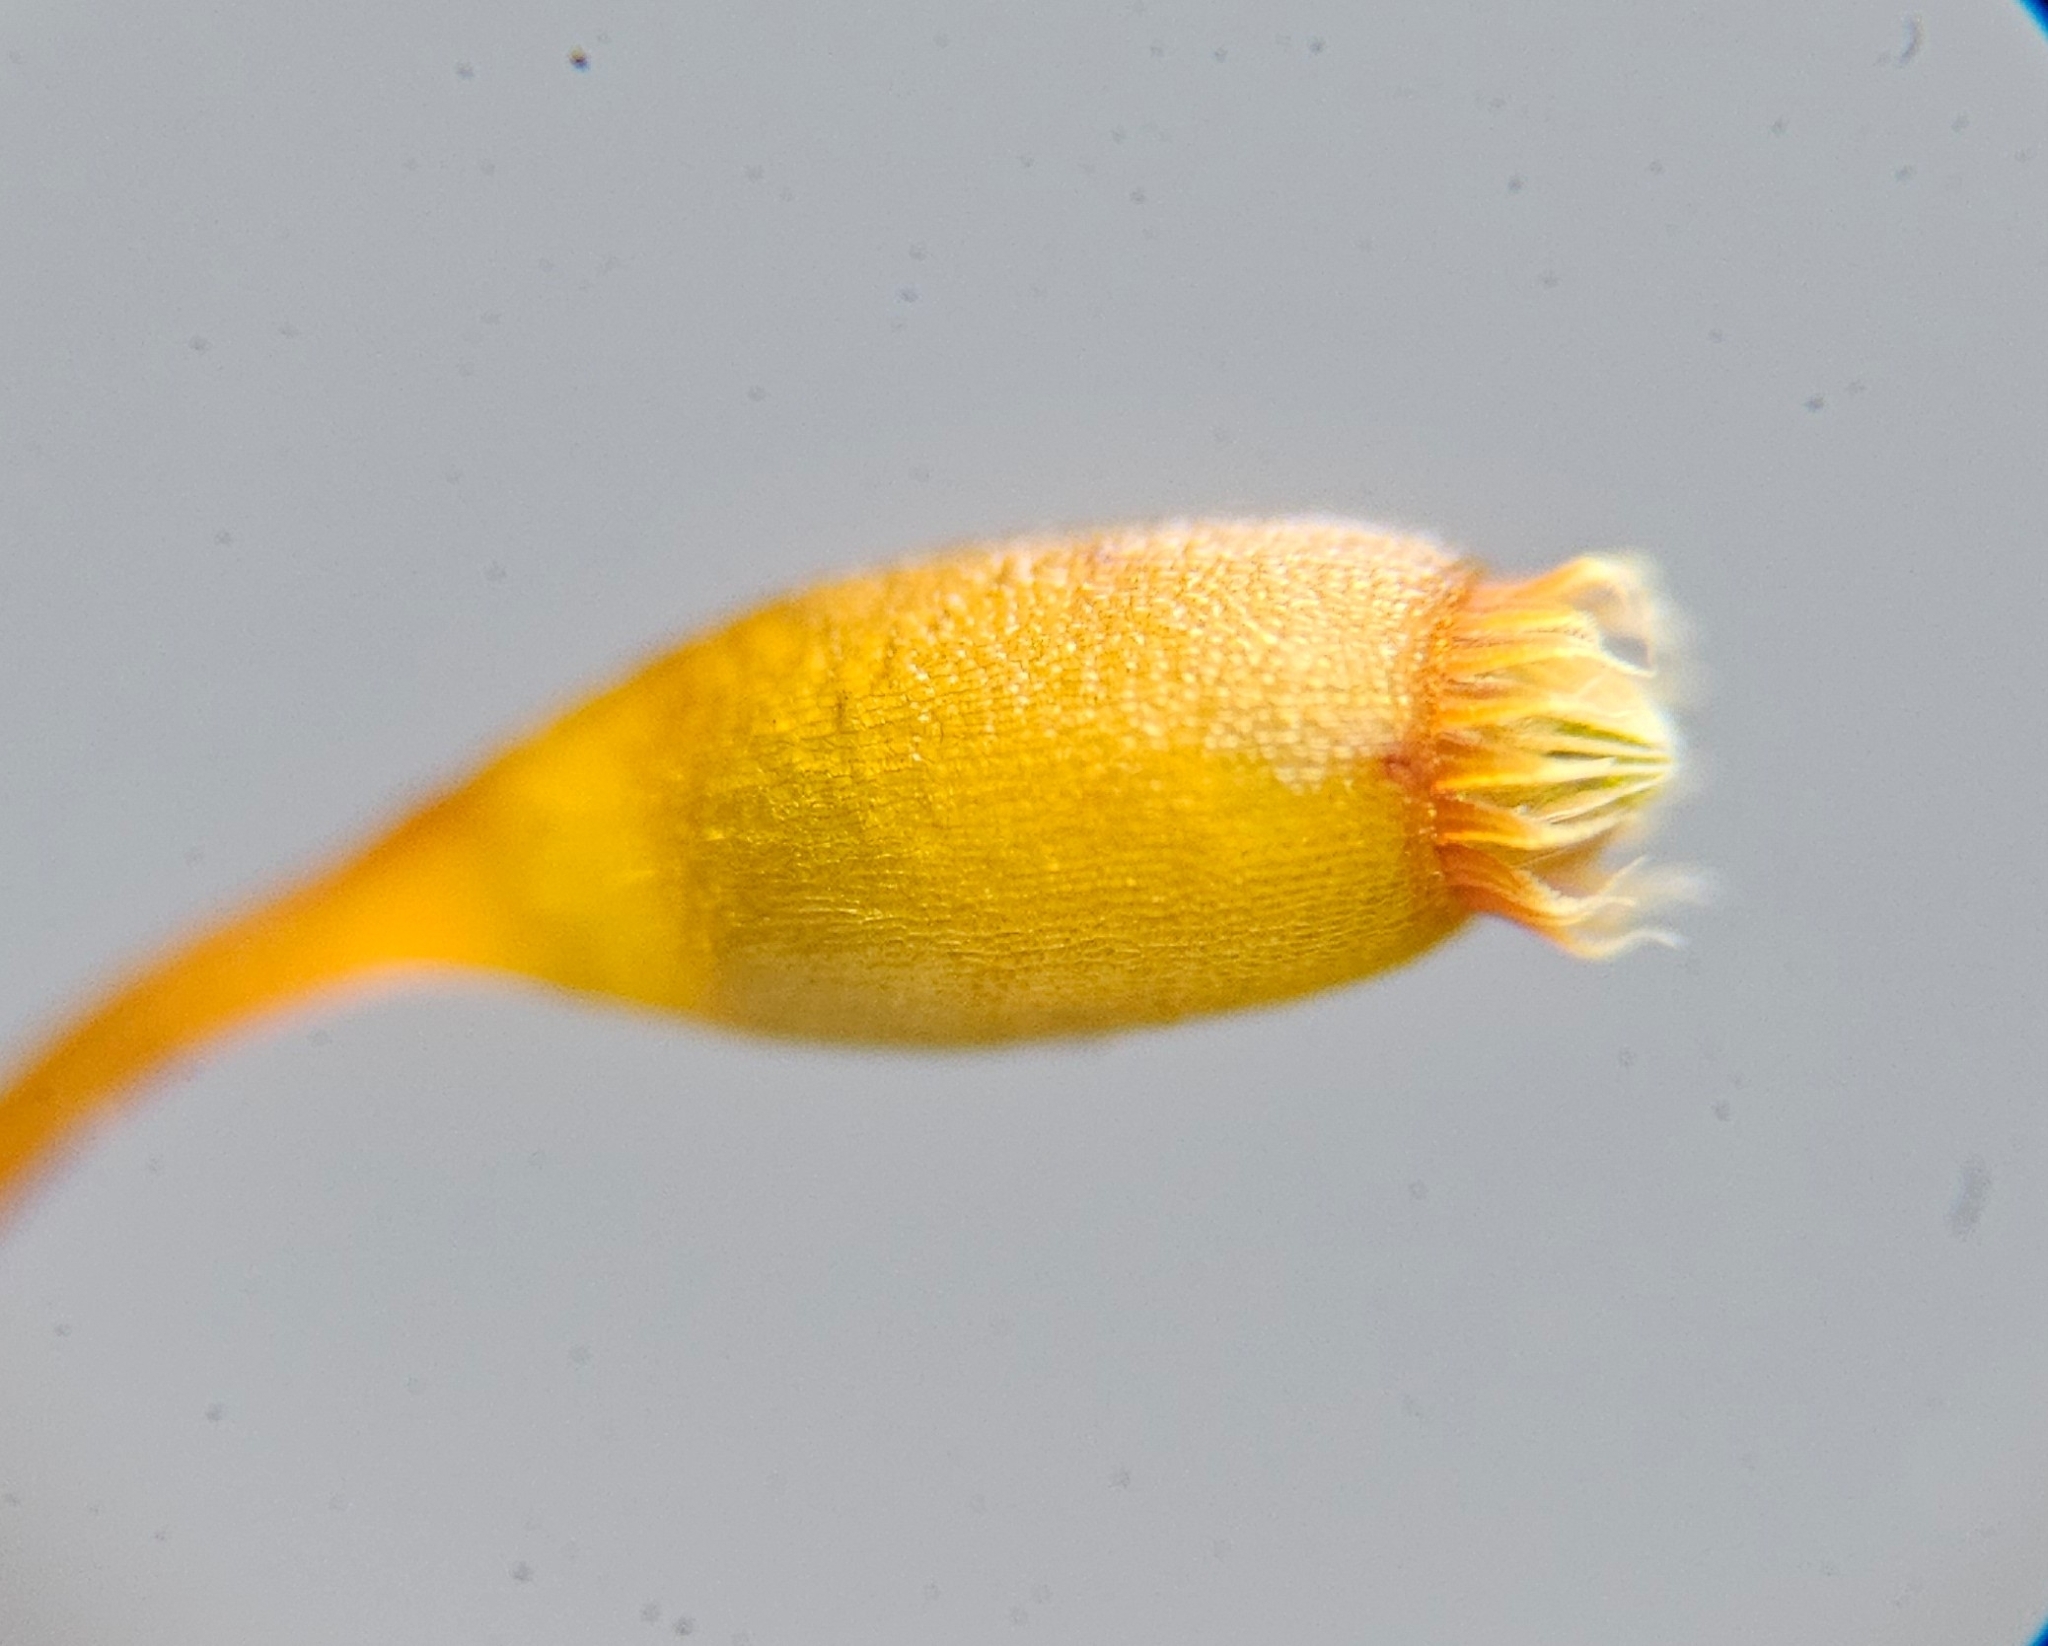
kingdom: Plantae
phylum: Bryophyta
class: Bryopsida
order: Hypnales
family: Brachytheciaceae
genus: Rhynchostegium
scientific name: Rhynchostegium confertum
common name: Clustered feather-moss
